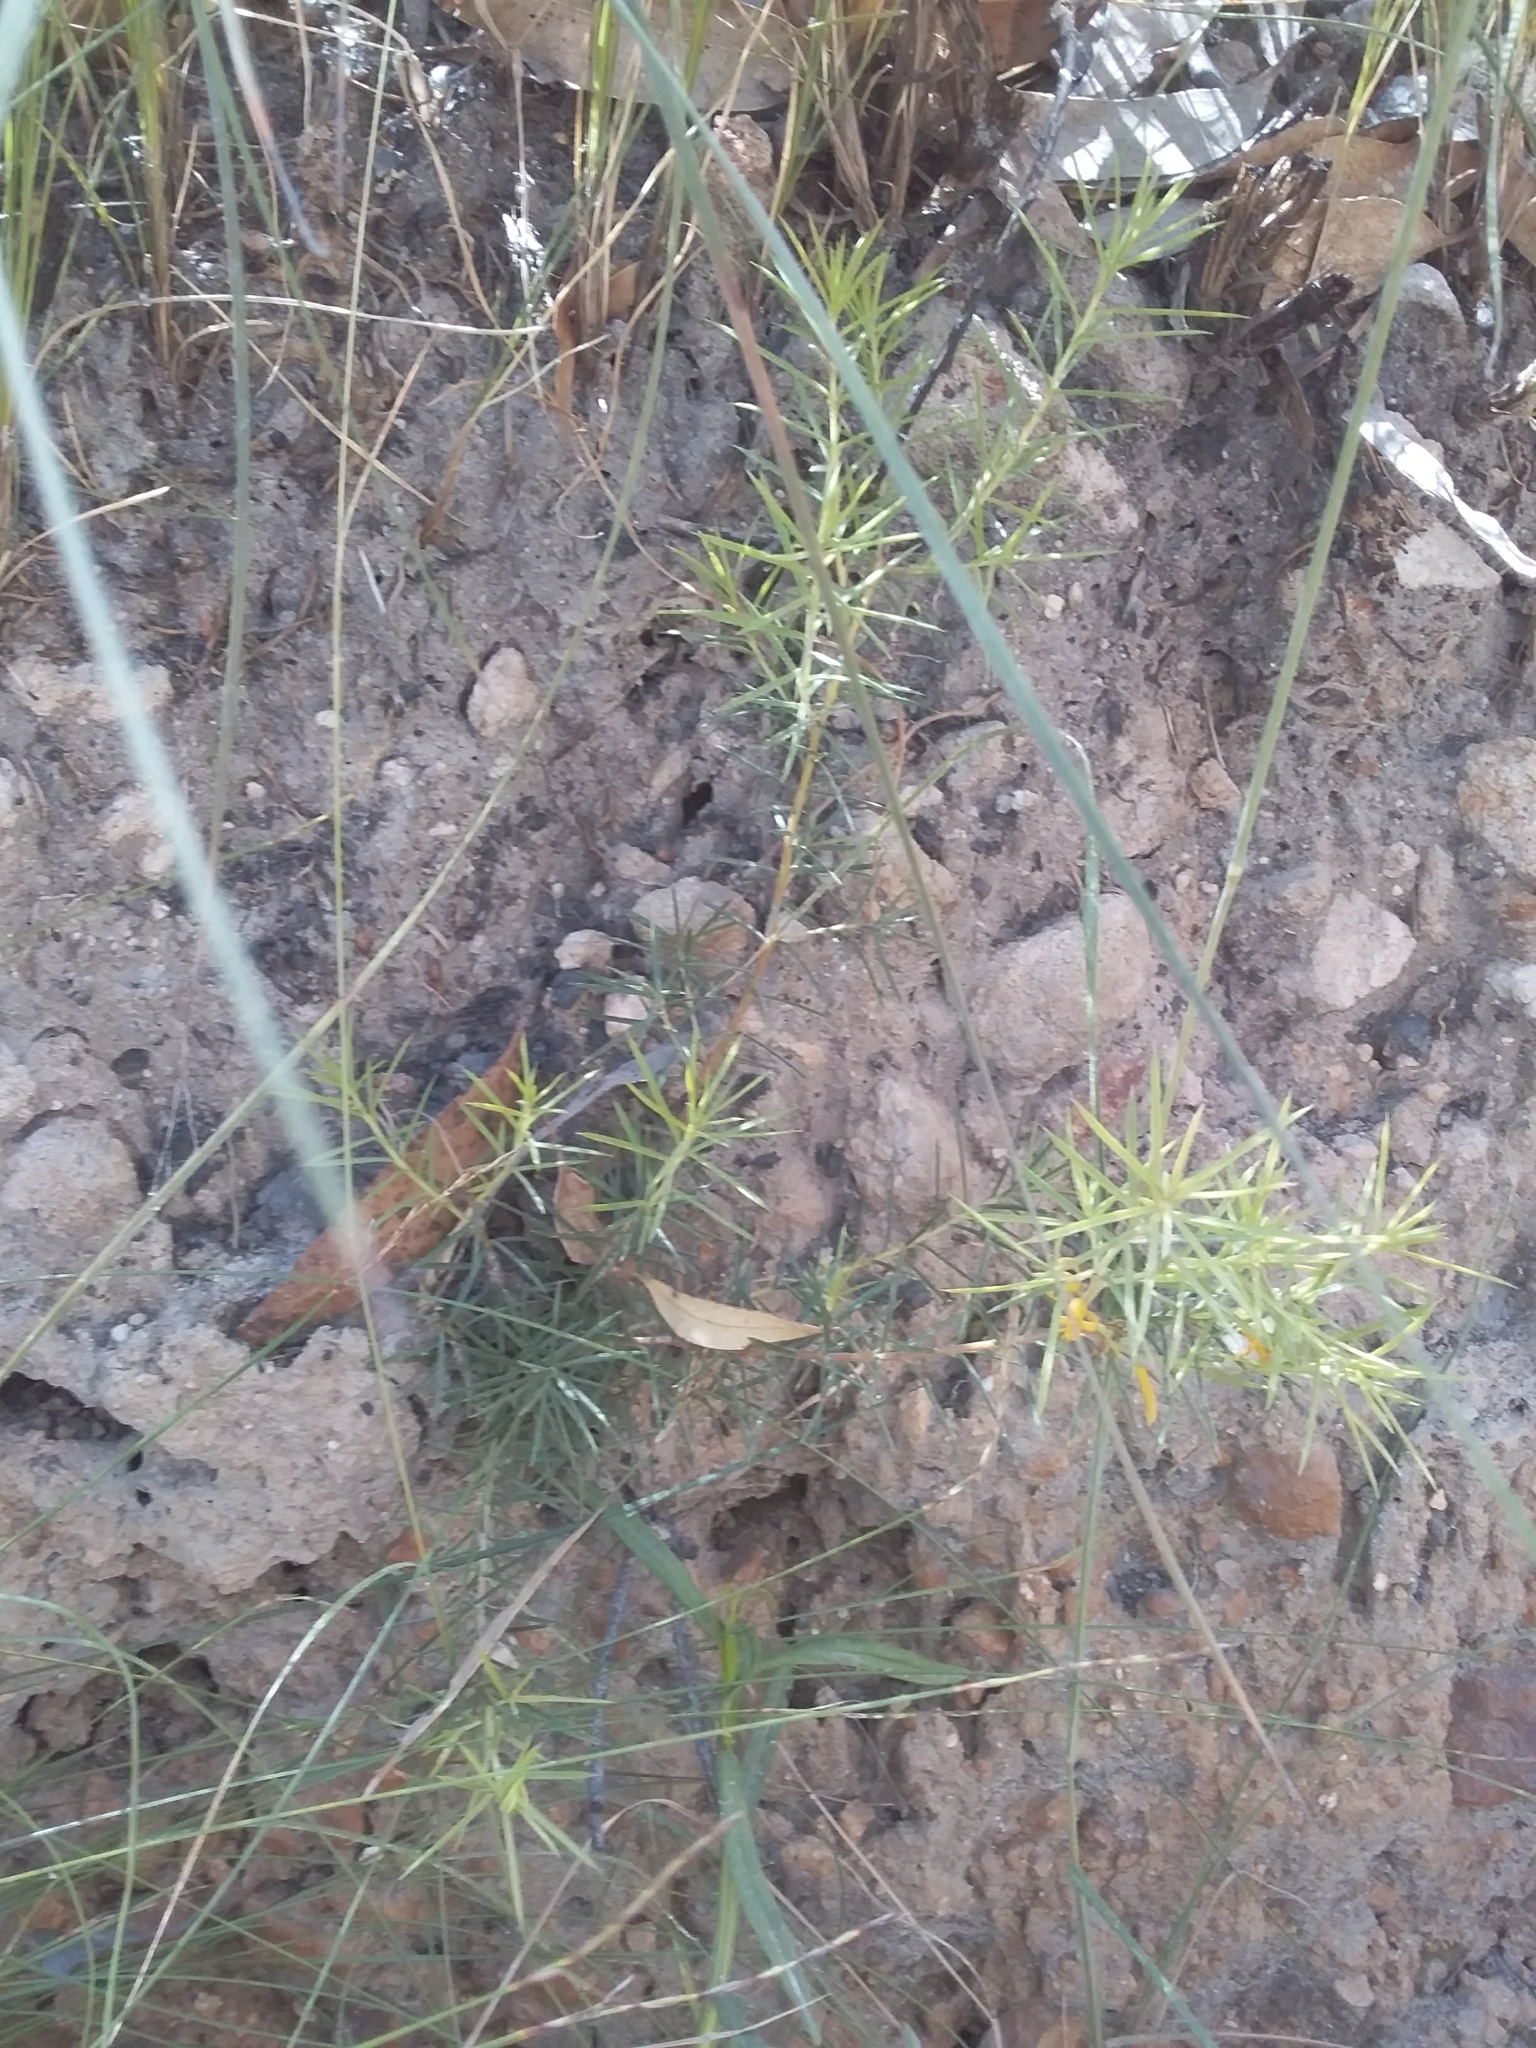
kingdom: Plantae
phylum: Tracheophyta
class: Magnoliopsida
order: Proteales
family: Proteaceae
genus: Persoonia
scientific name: Persoonia juniperina
